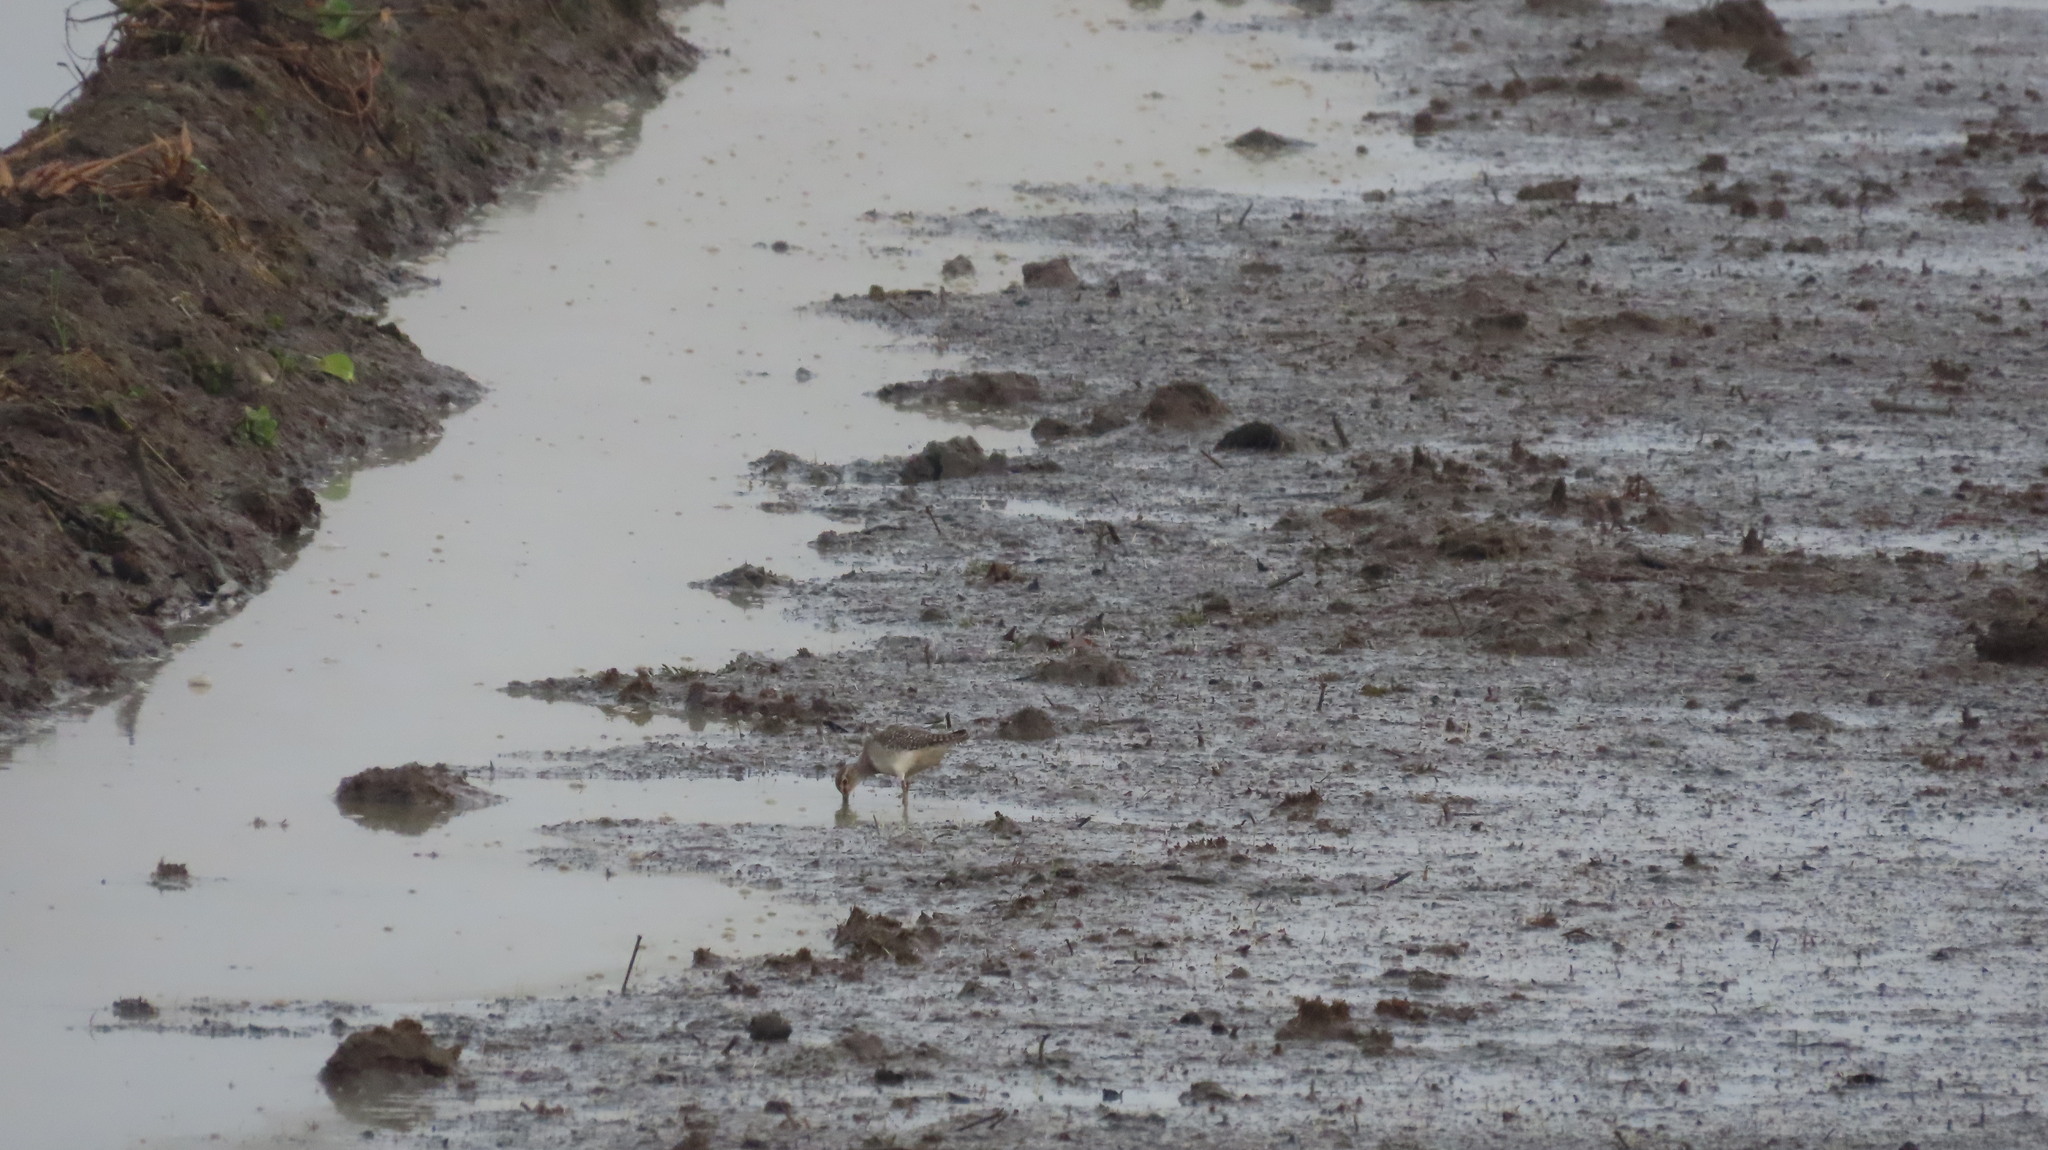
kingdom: Animalia
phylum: Chordata
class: Aves
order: Charadriiformes
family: Scolopacidae
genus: Tringa
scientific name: Tringa glareola
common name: Wood sandpiper
